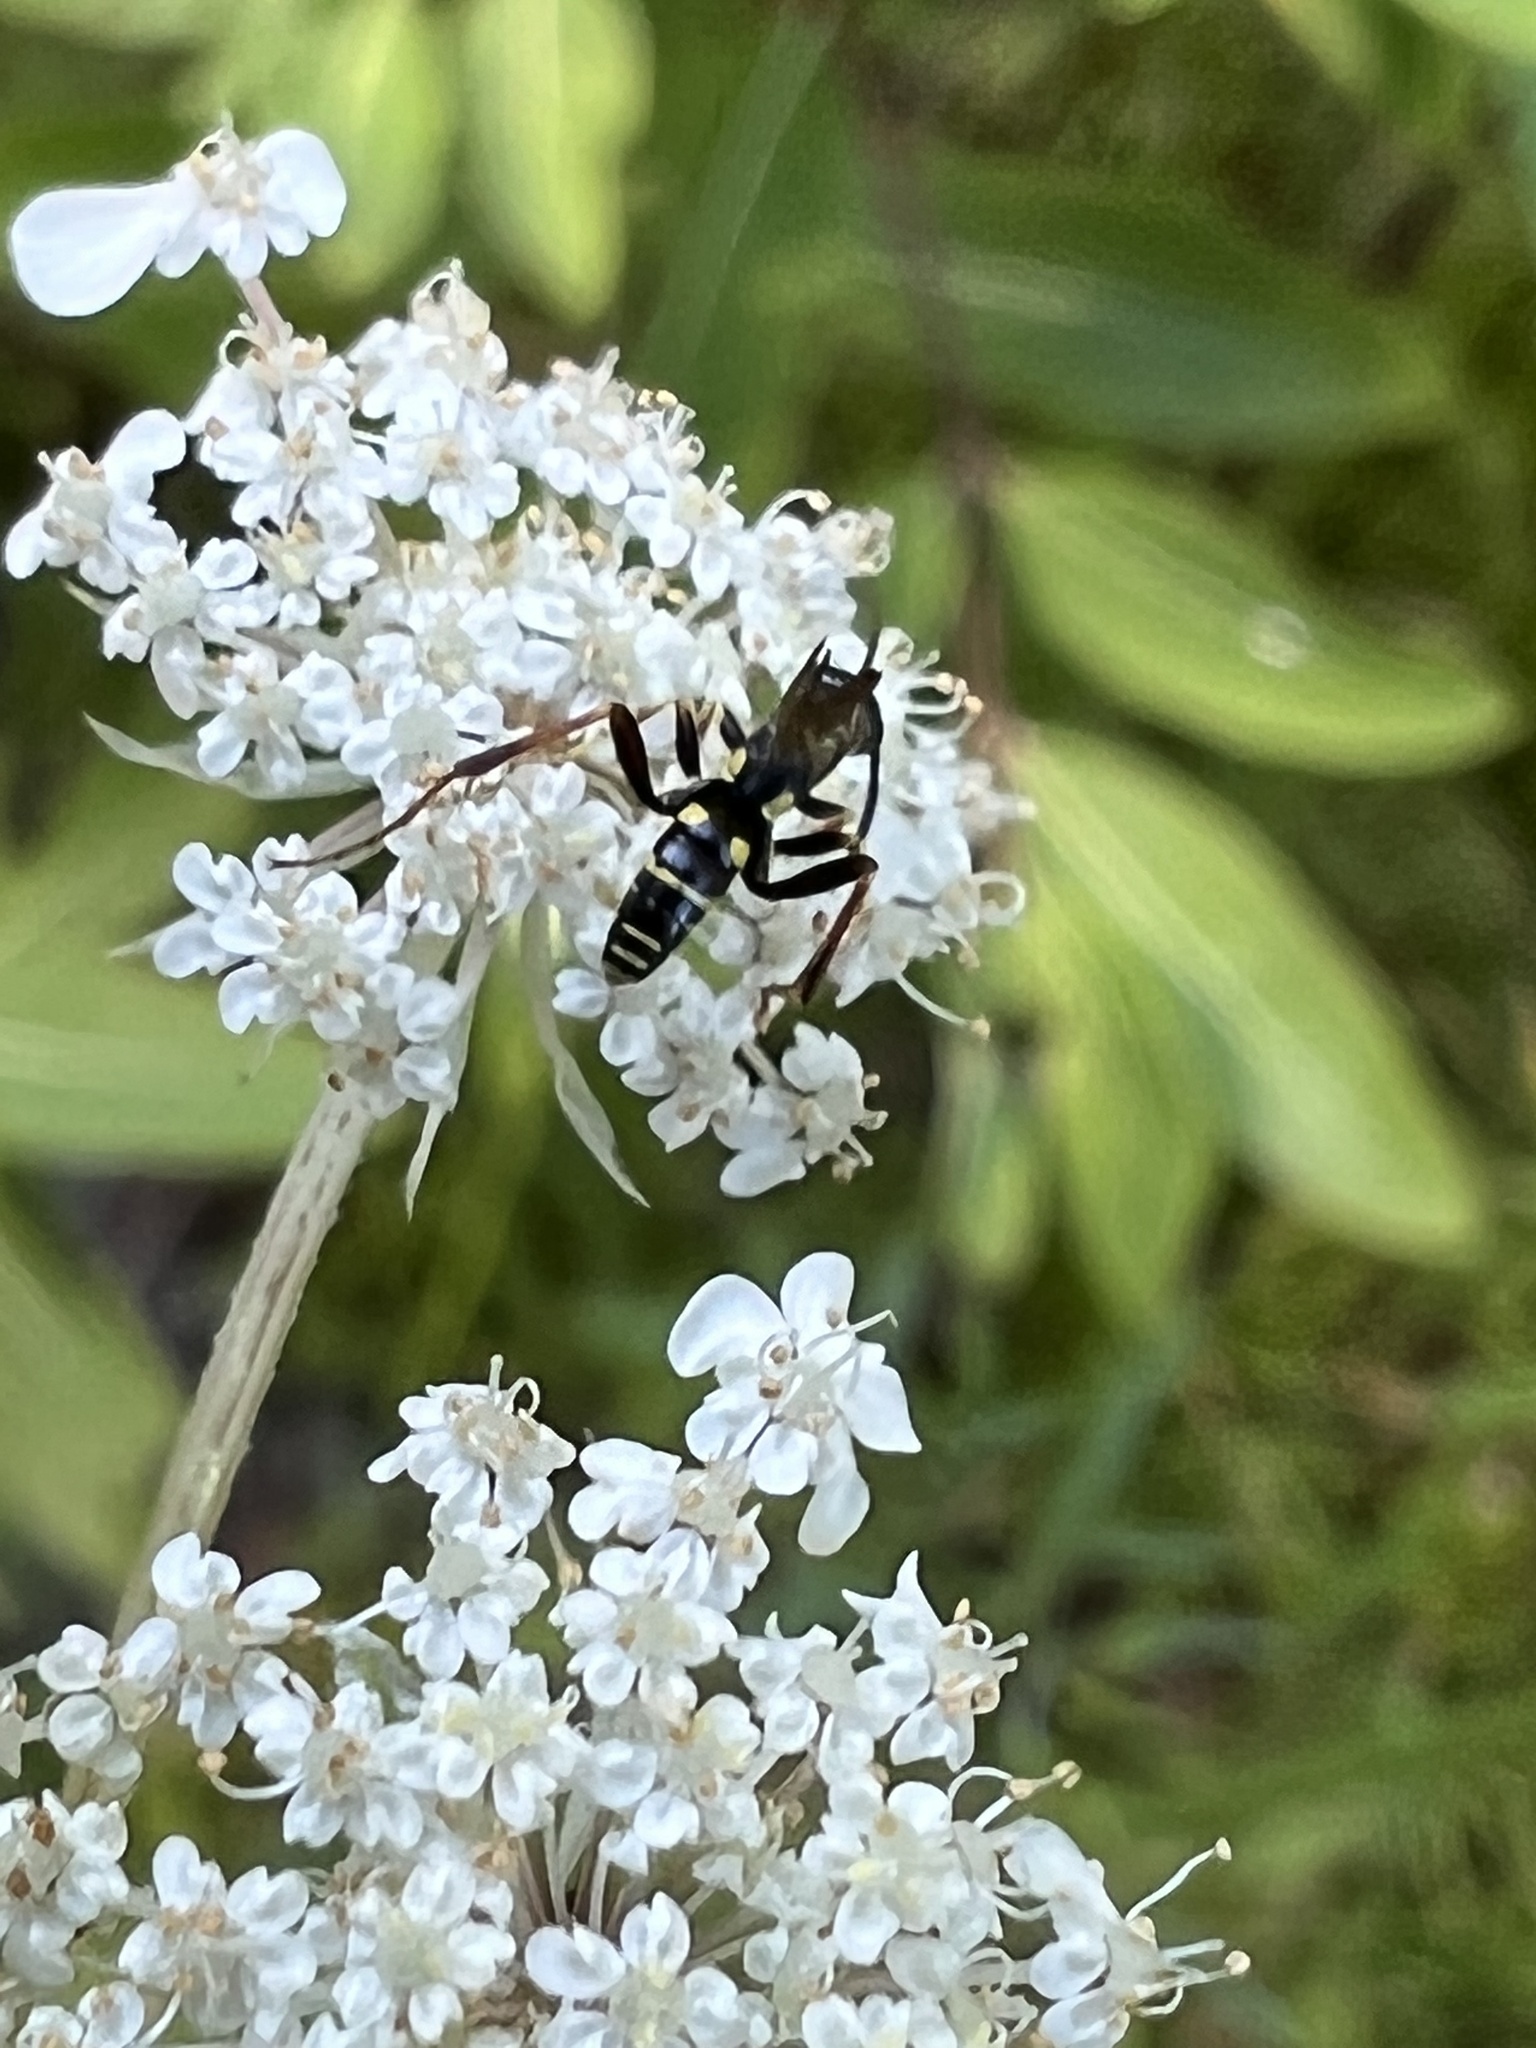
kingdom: Animalia
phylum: Arthropoda
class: Insecta
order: Hymenoptera
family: Pompilidae
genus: Ceropales
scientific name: Ceropales maculata
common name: Spider wasp
